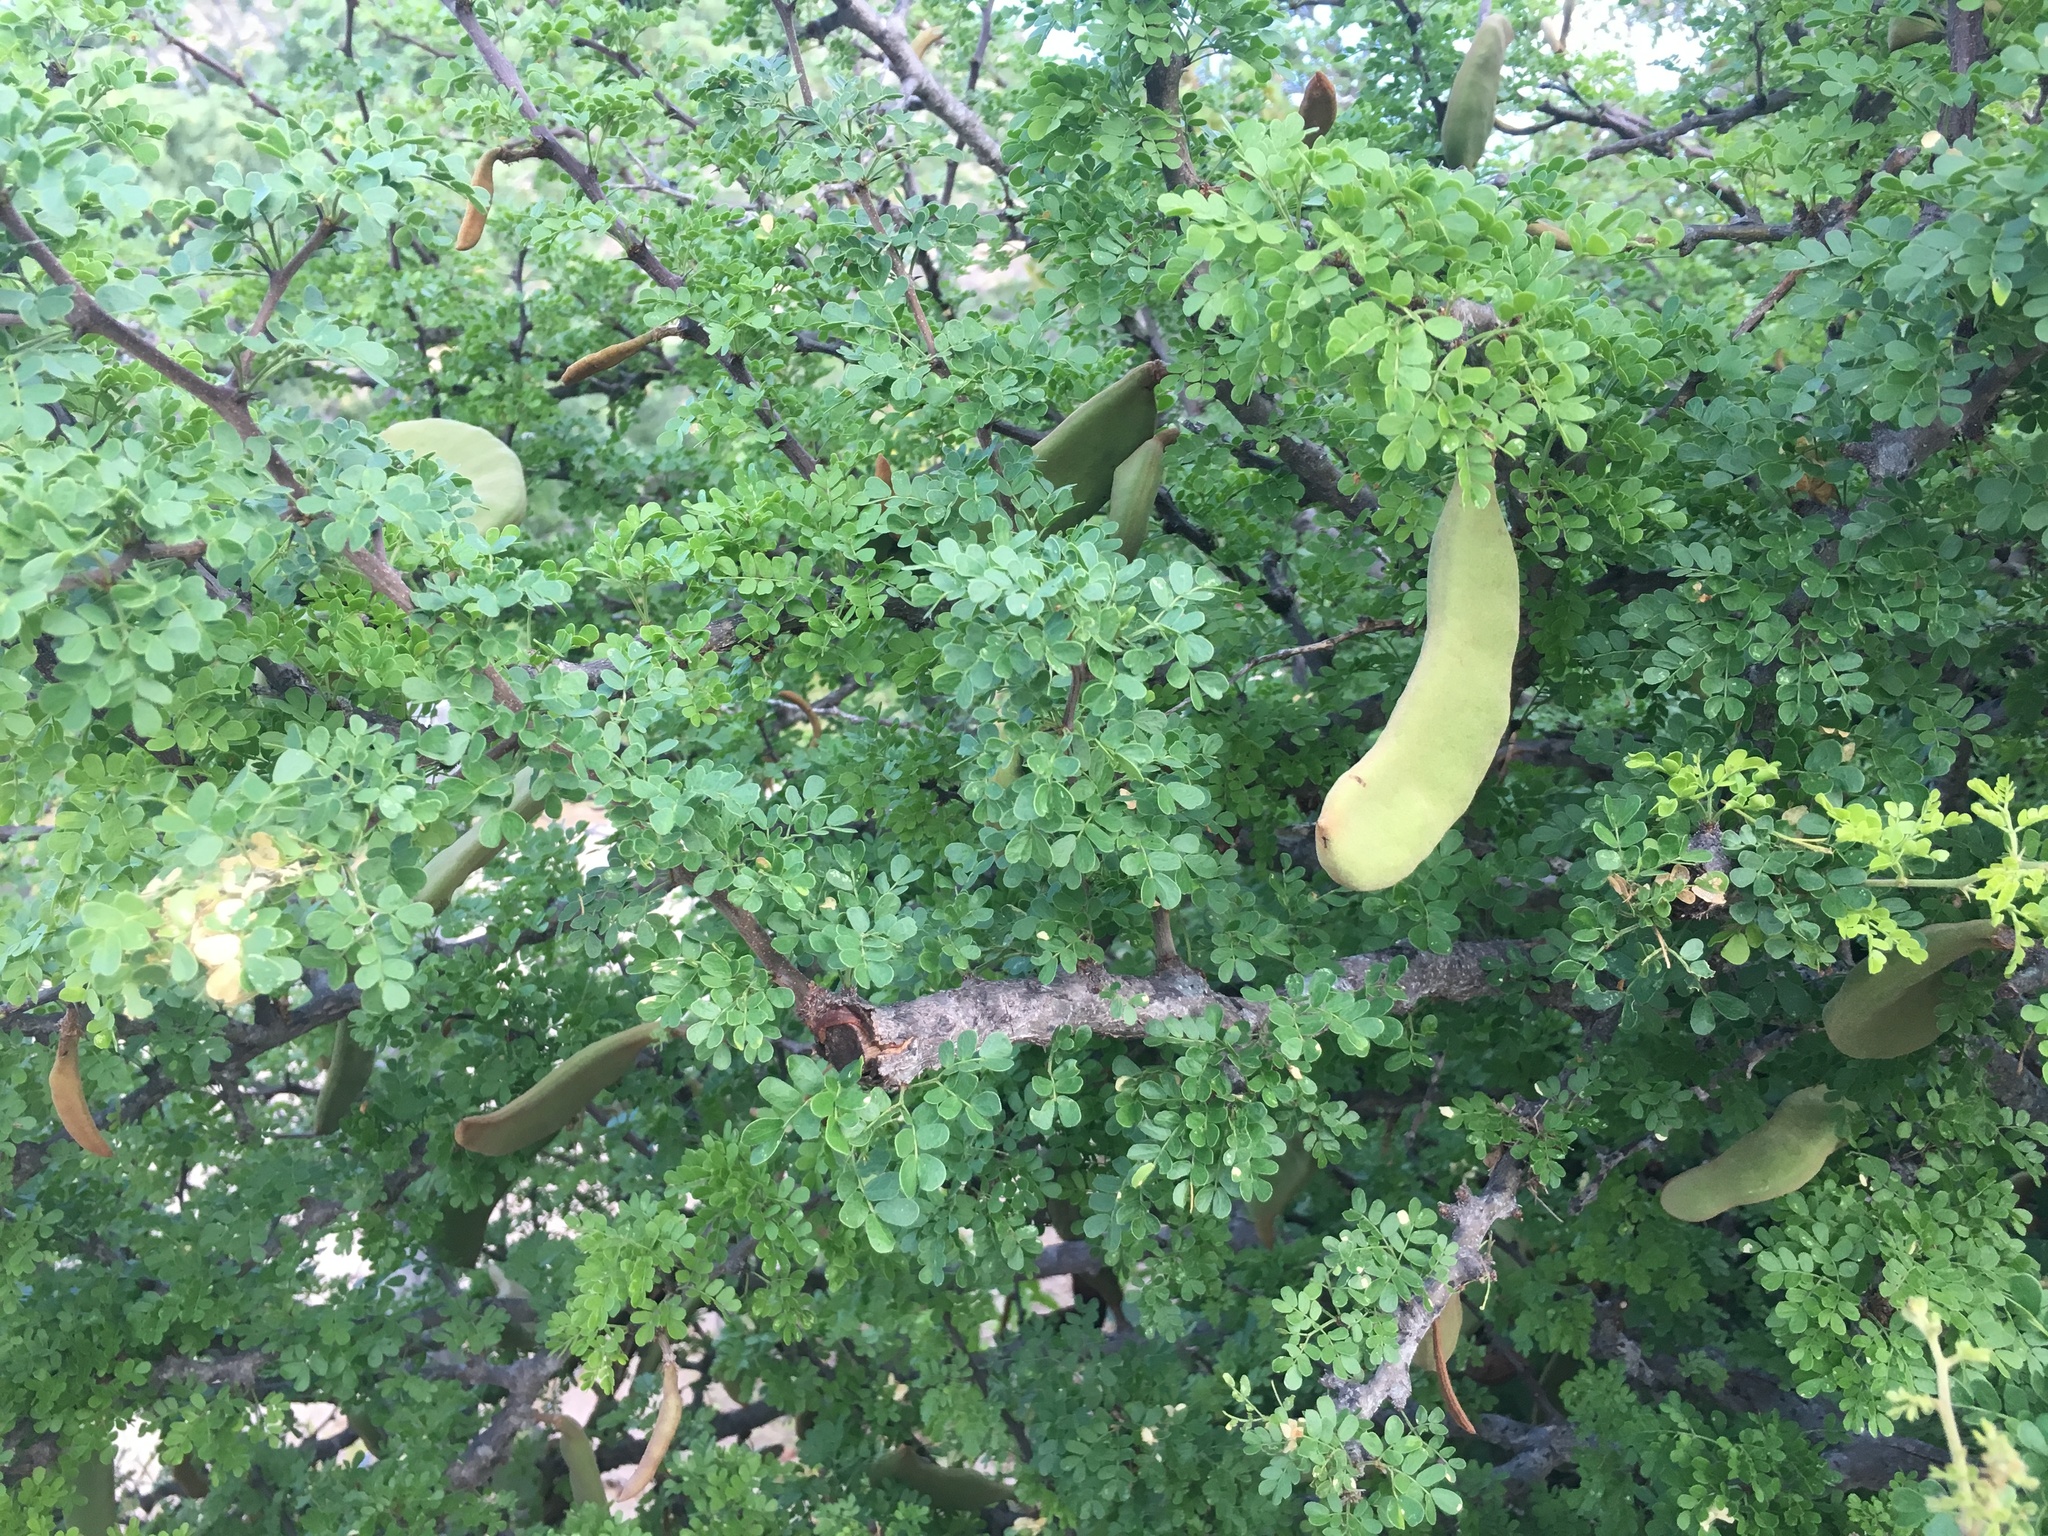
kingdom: Plantae
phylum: Tracheophyta
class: Magnoliopsida
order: Fabales
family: Fabaceae
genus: Ebenopsis
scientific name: Ebenopsis confinis
